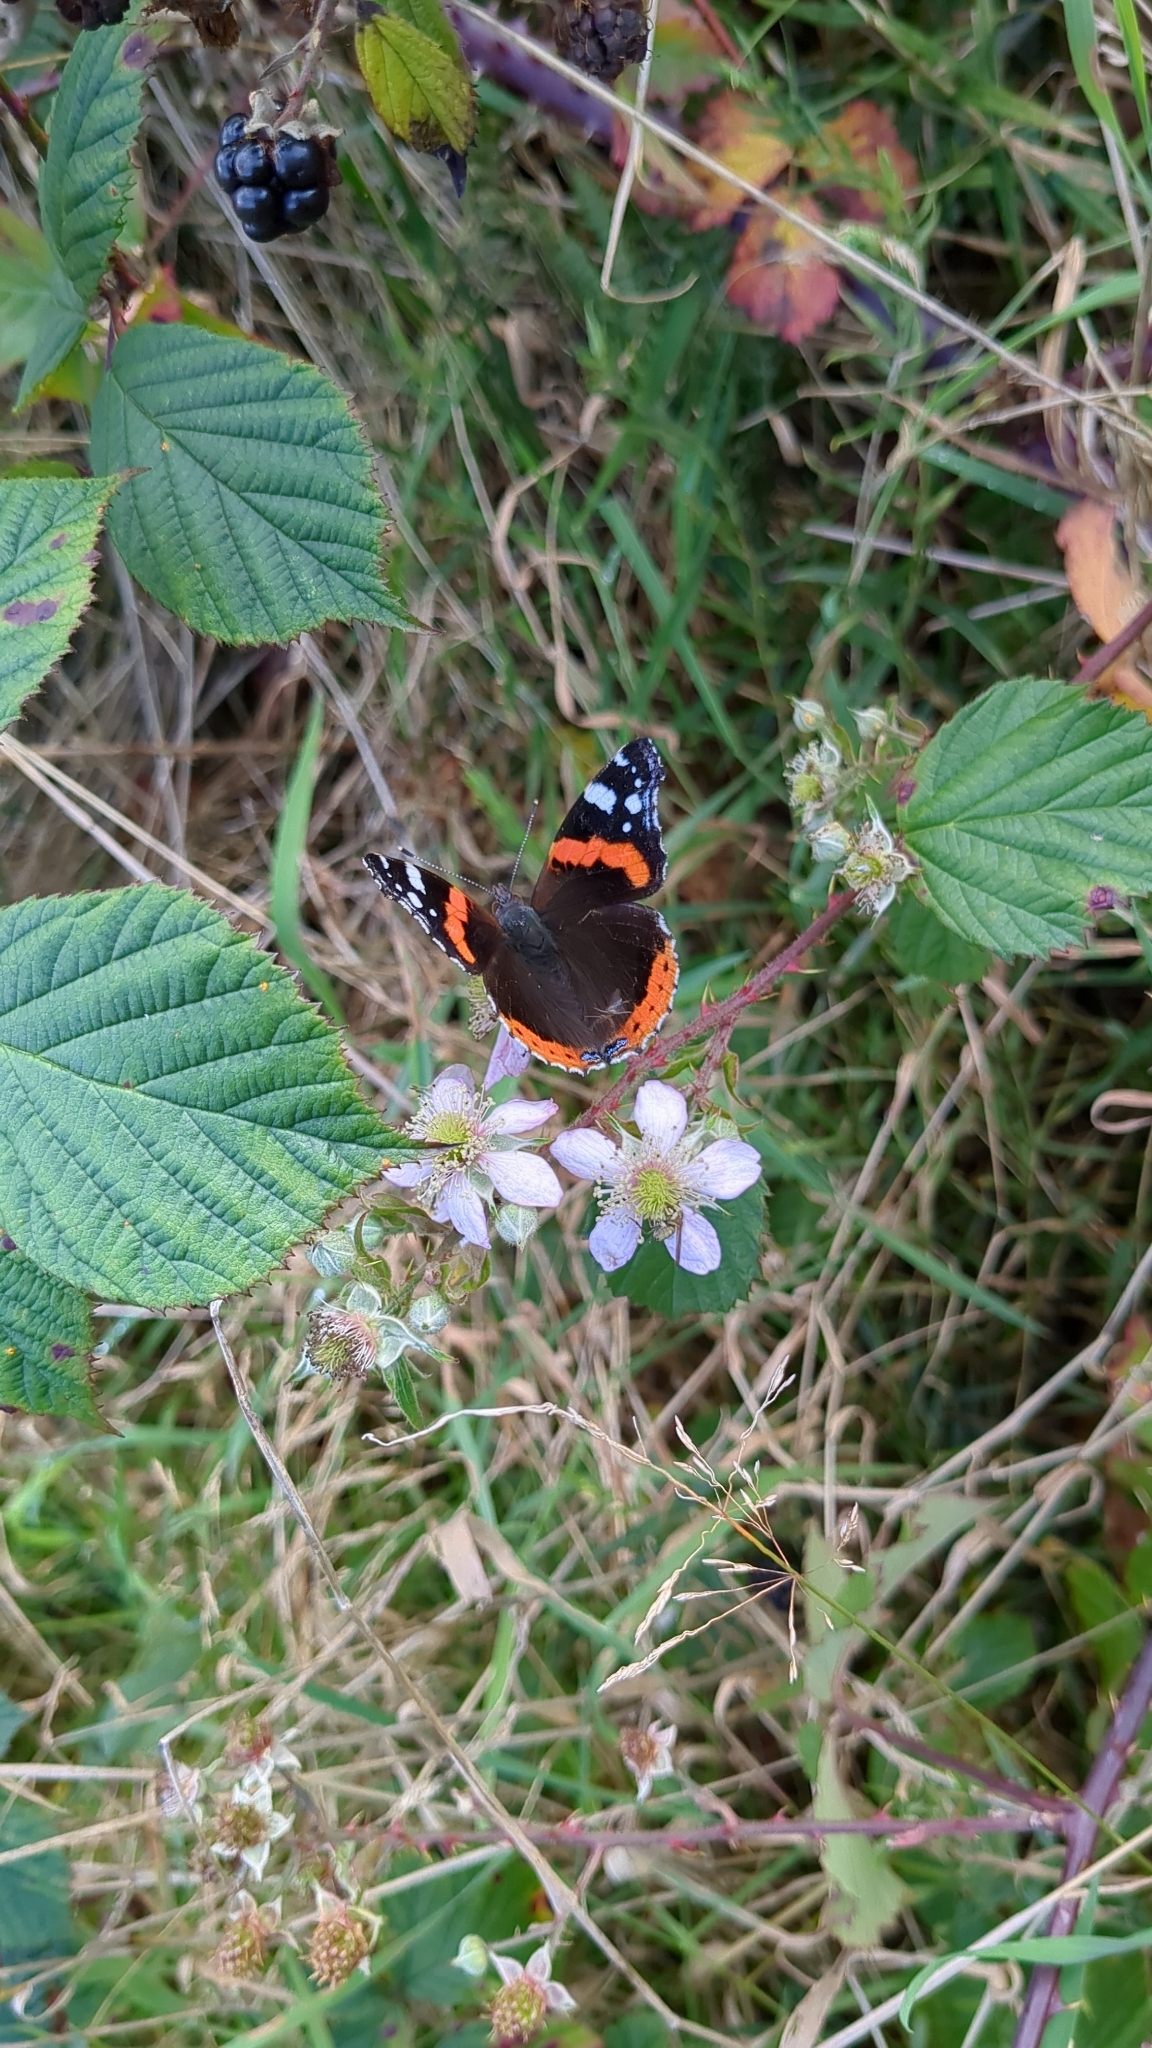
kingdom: Animalia
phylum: Arthropoda
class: Insecta
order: Lepidoptera
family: Nymphalidae
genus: Vanessa
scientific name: Vanessa atalanta
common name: Red admiral
